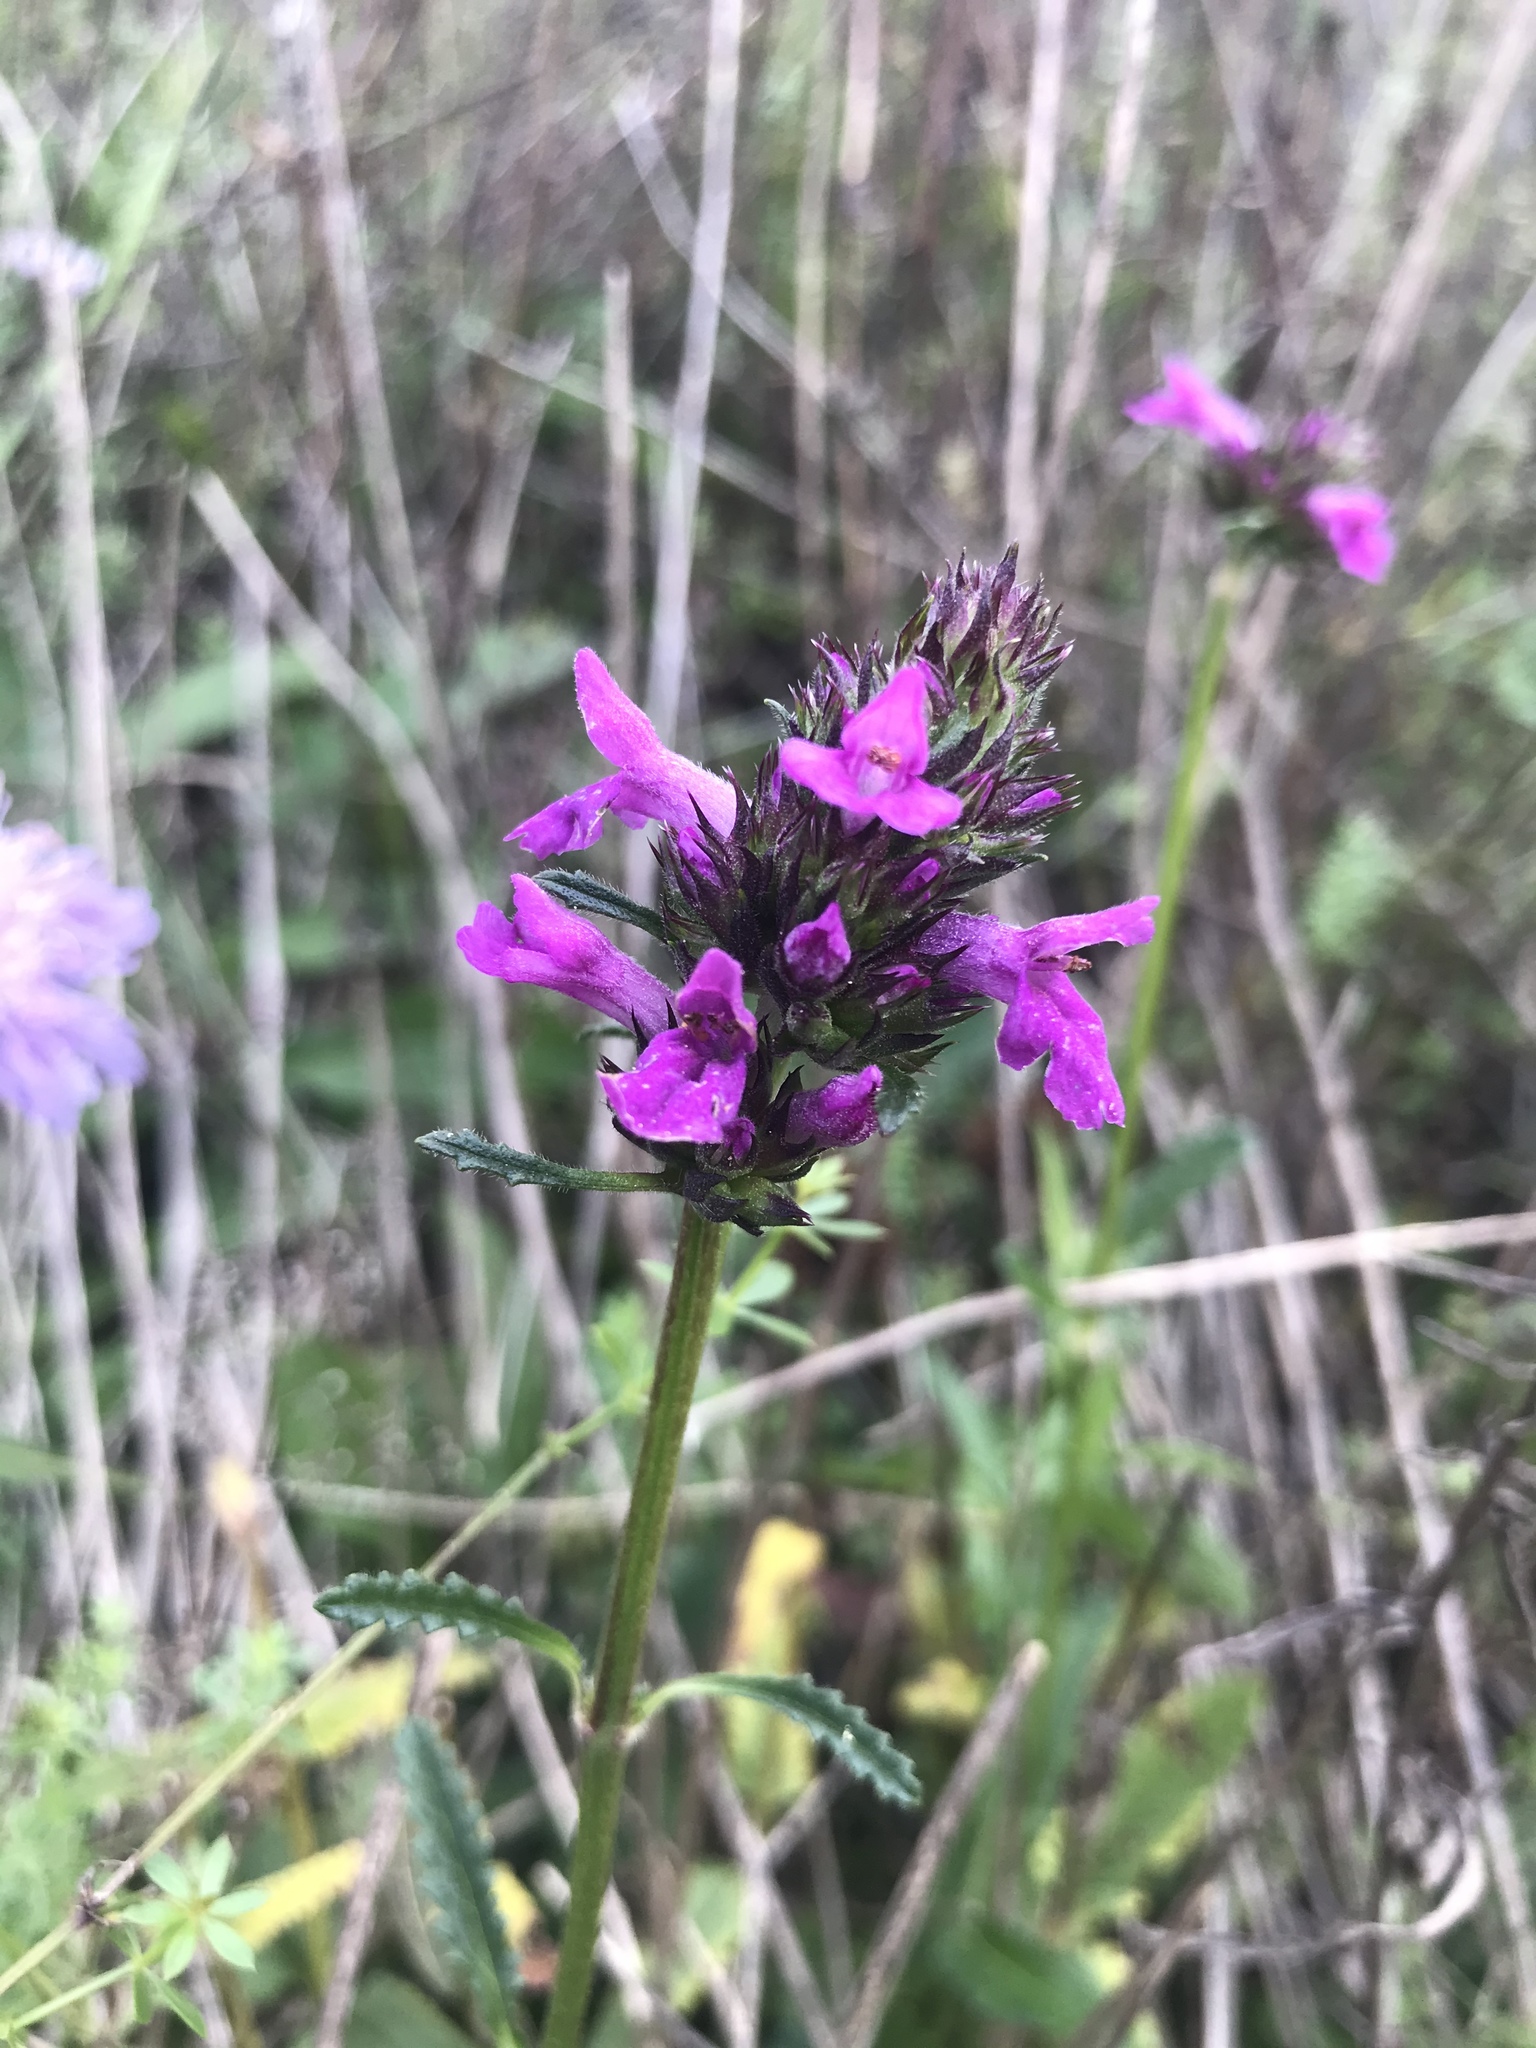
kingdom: Plantae
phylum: Tracheophyta
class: Magnoliopsida
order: Lamiales
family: Lamiaceae
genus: Betonica
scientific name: Betonica officinalis
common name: Bishop's-wort
